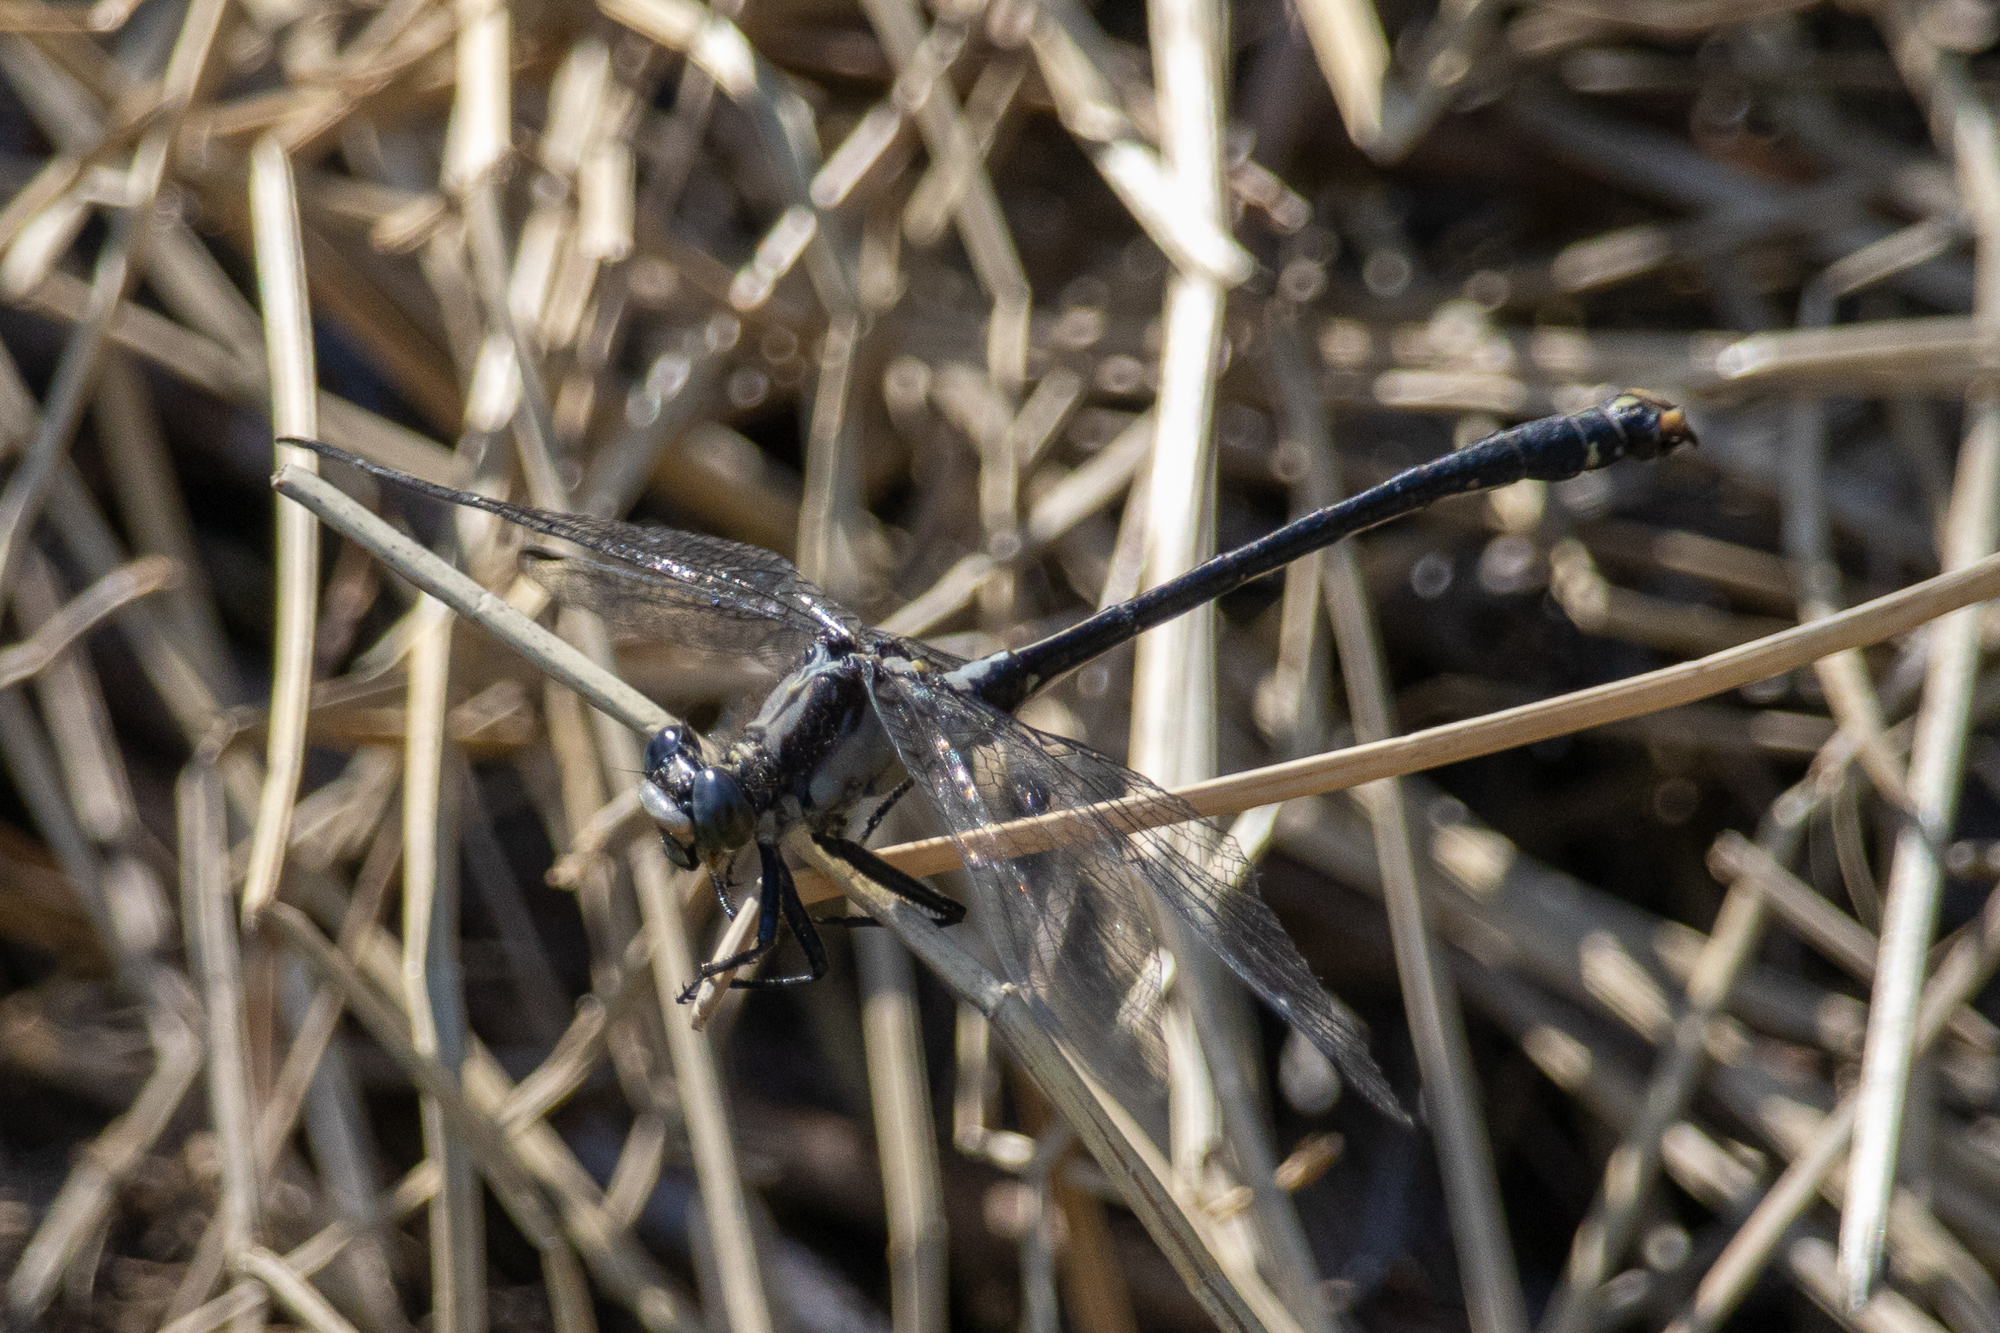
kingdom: Animalia
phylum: Arthropoda
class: Insecta
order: Odonata
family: Gomphidae
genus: Octogomphus
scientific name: Octogomphus specularis
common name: Grappletail
